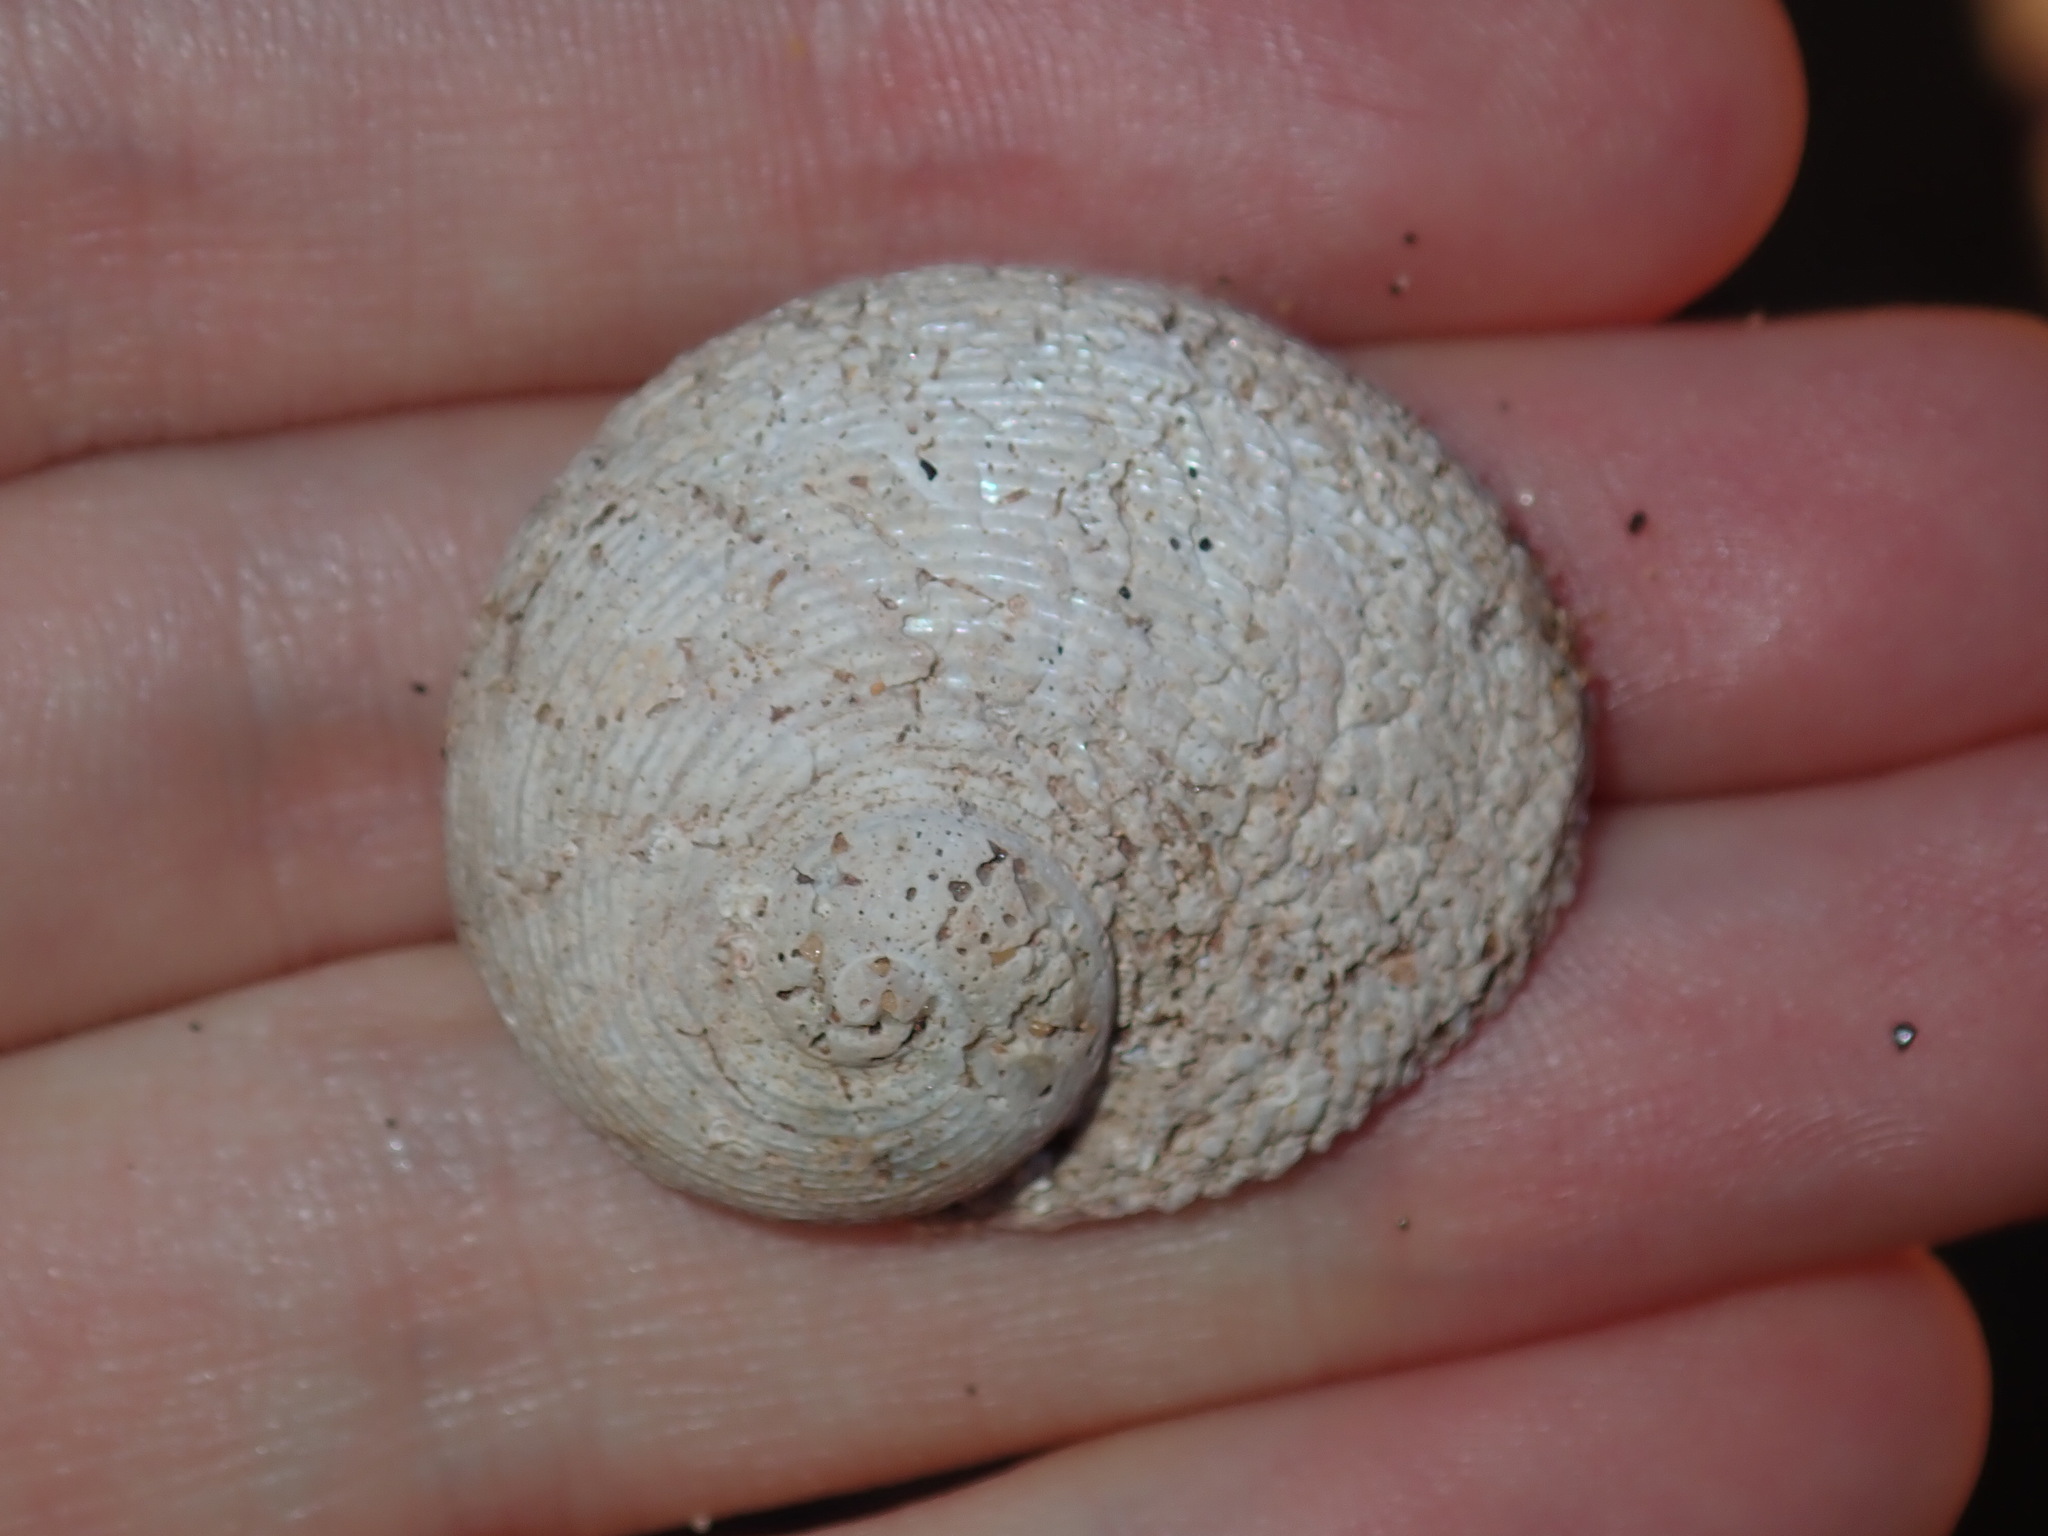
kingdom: Animalia
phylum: Mollusca
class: Gastropoda
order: Seguenziida
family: Chilodontaidae
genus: Granata
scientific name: Granata imbricata
